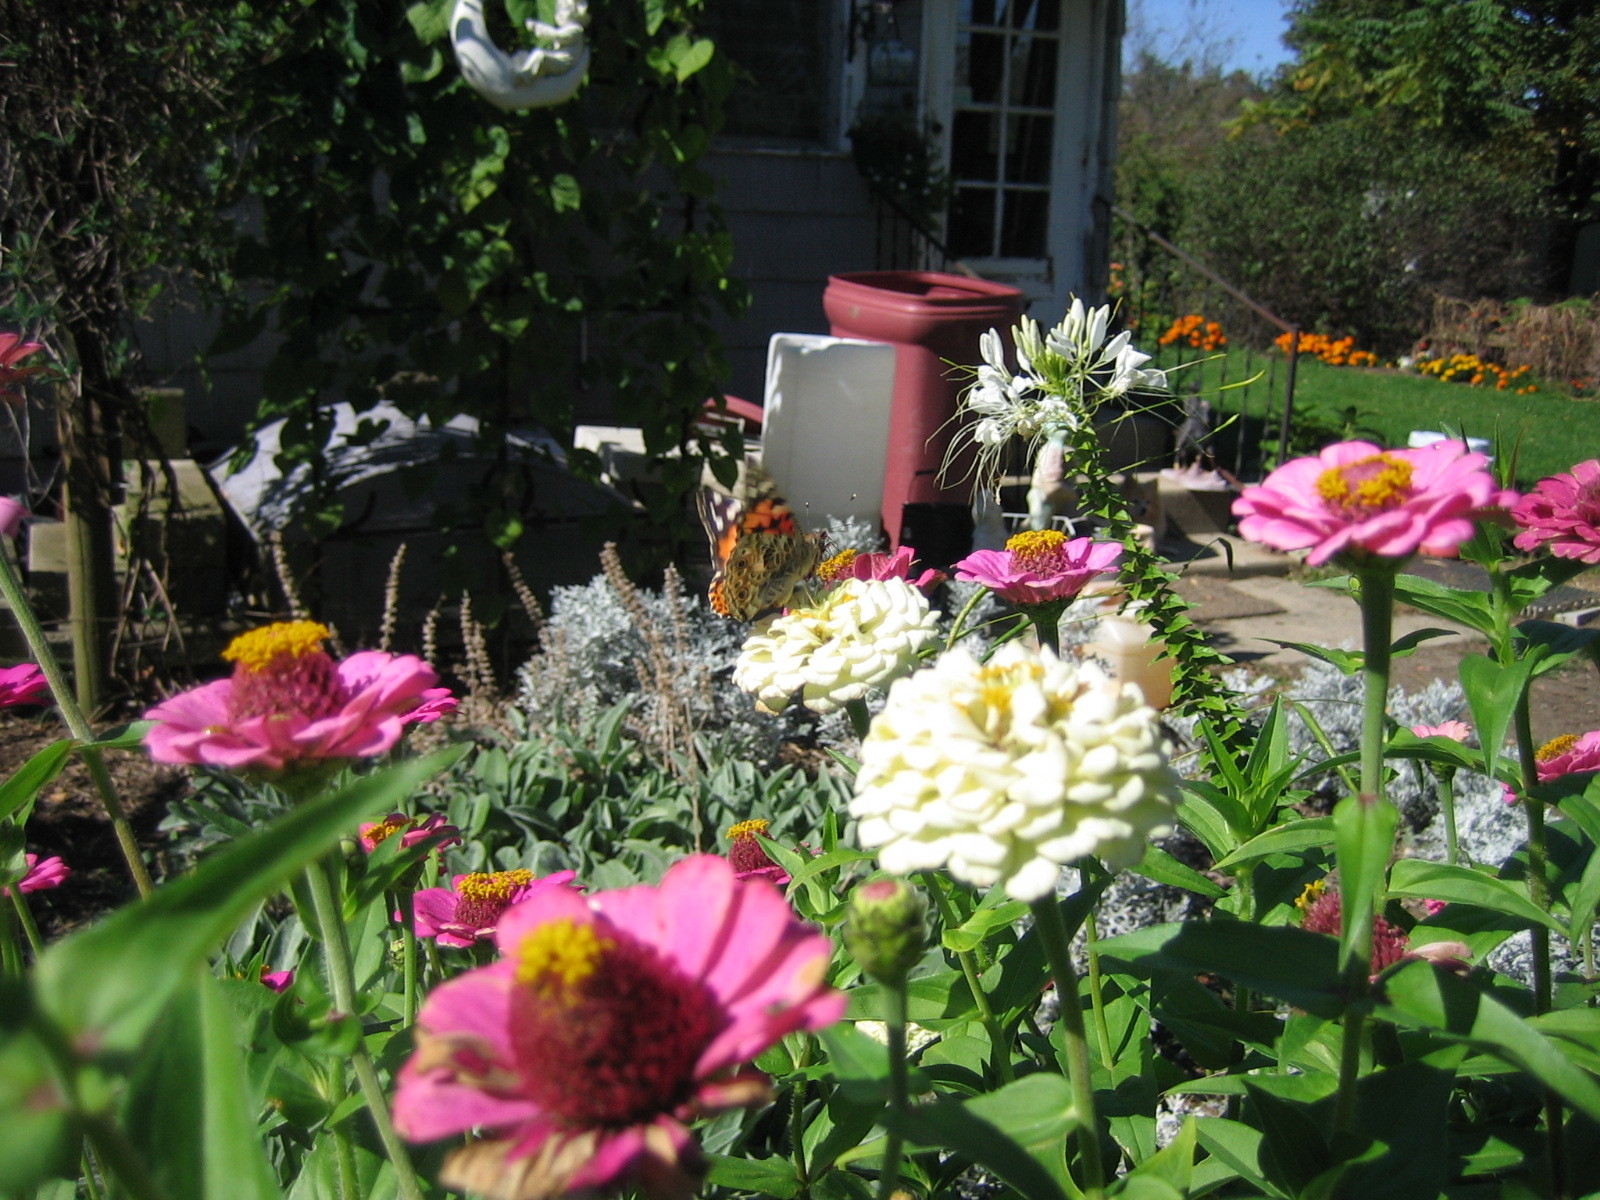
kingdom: Animalia
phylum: Arthropoda
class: Insecta
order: Lepidoptera
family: Nymphalidae
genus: Vanessa
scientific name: Vanessa cardui
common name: Painted lady
